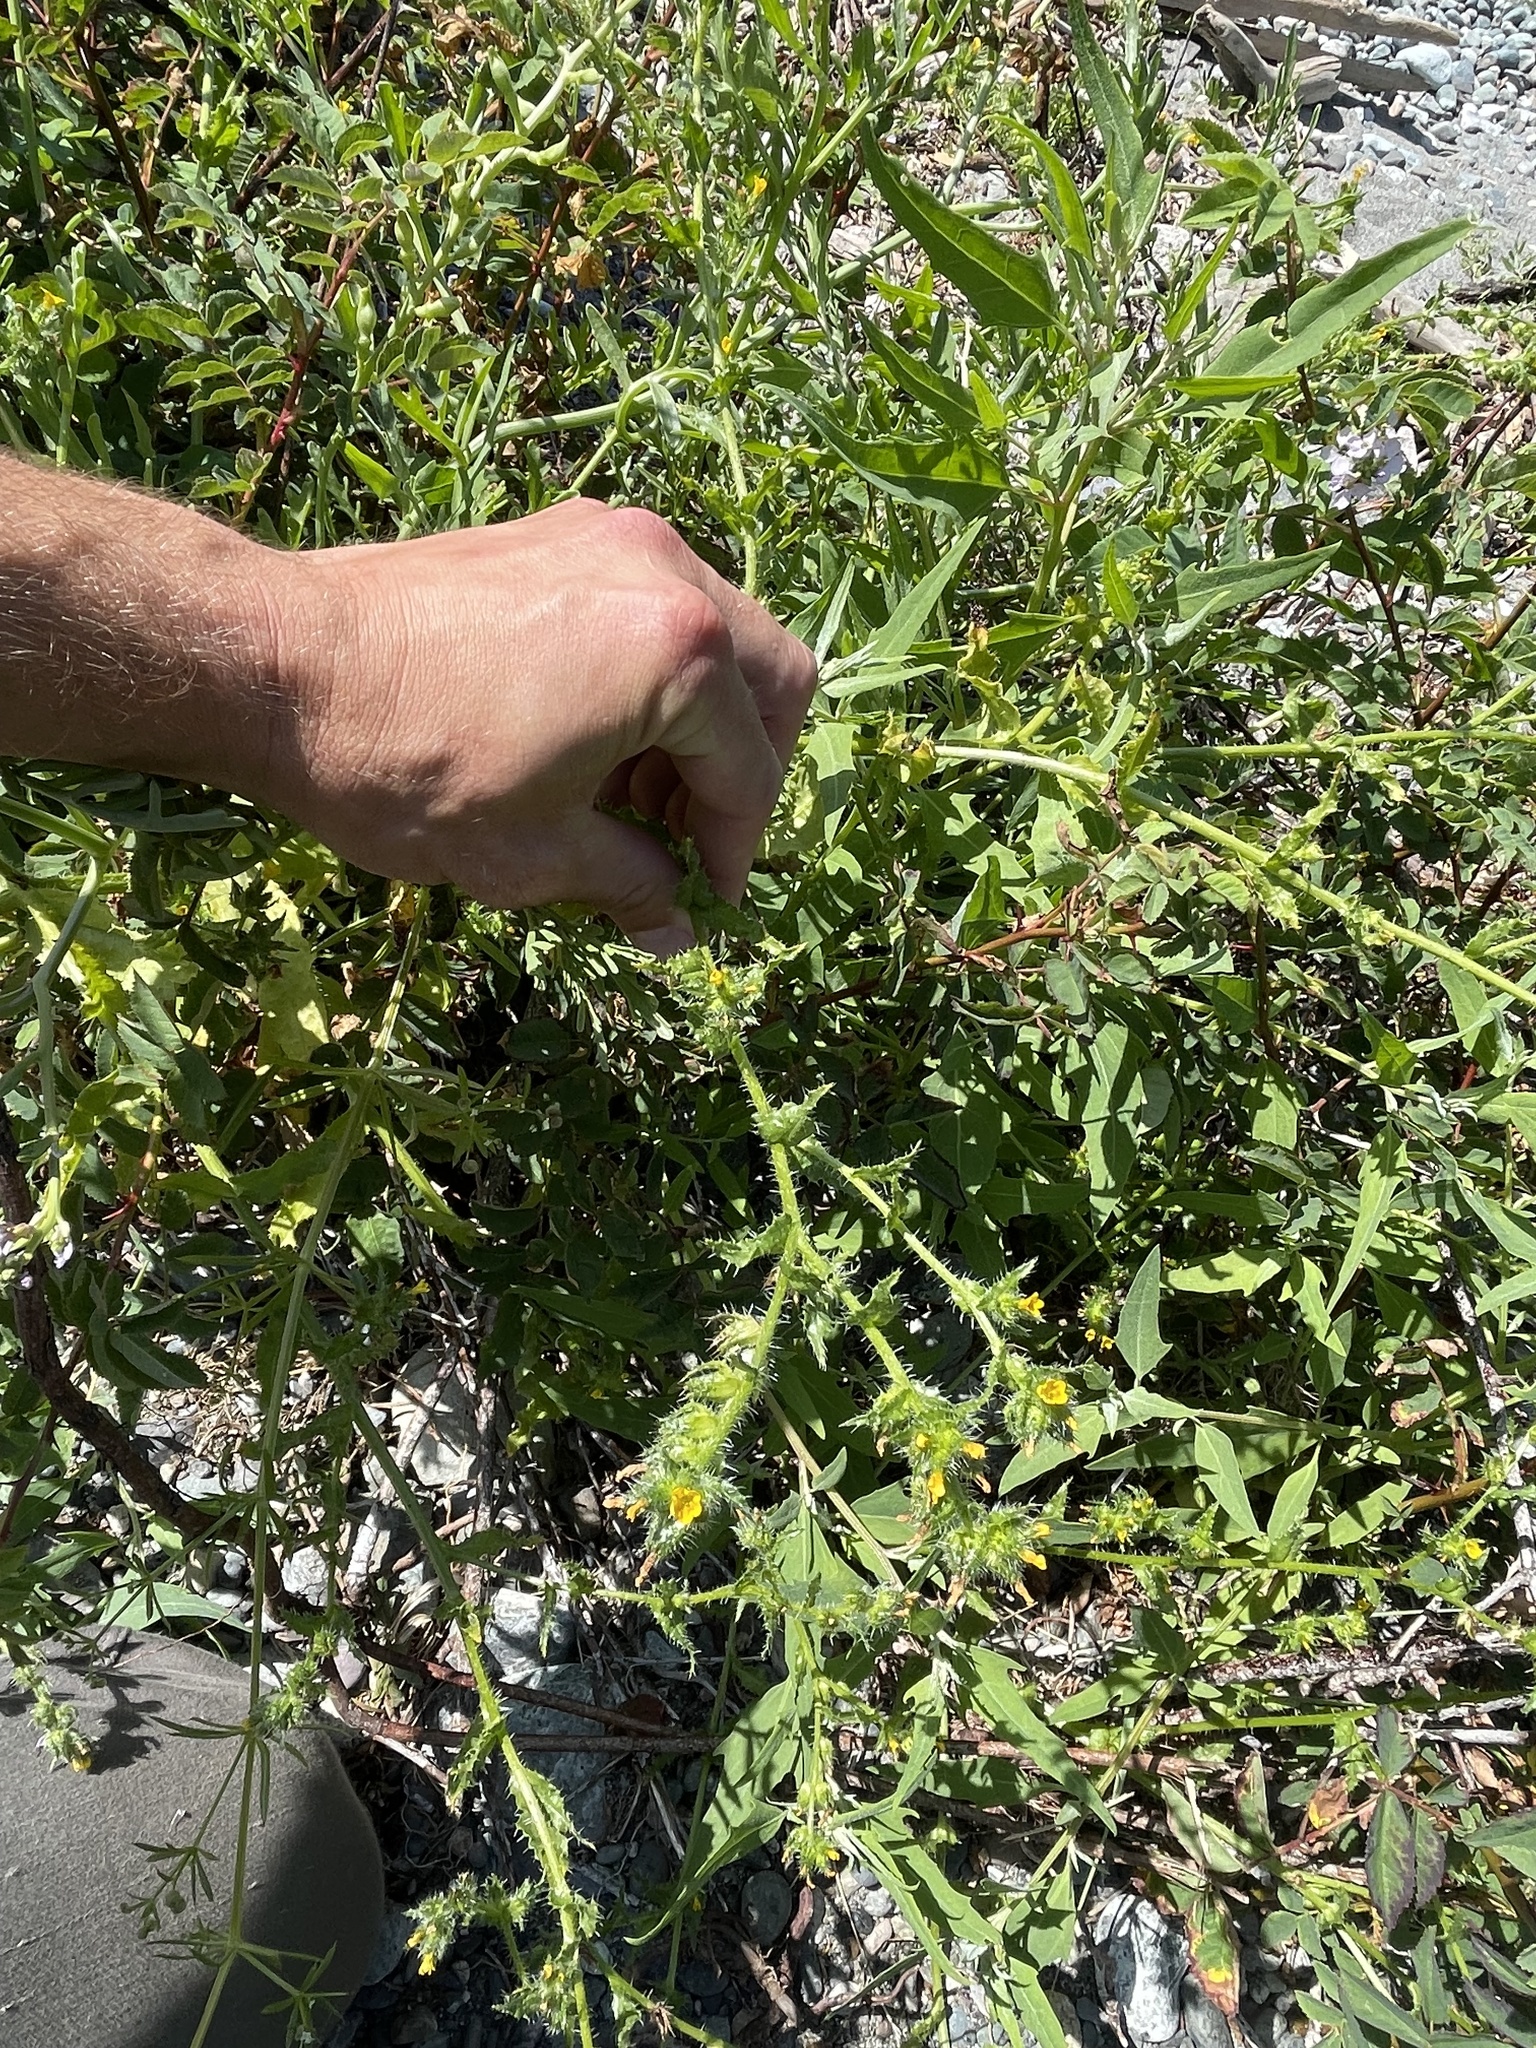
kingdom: Plantae
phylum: Tracheophyta
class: Magnoliopsida
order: Boraginales
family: Boraginaceae
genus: Amsinckia
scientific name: Amsinckia spectabilis
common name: Seaside fiddleneck
